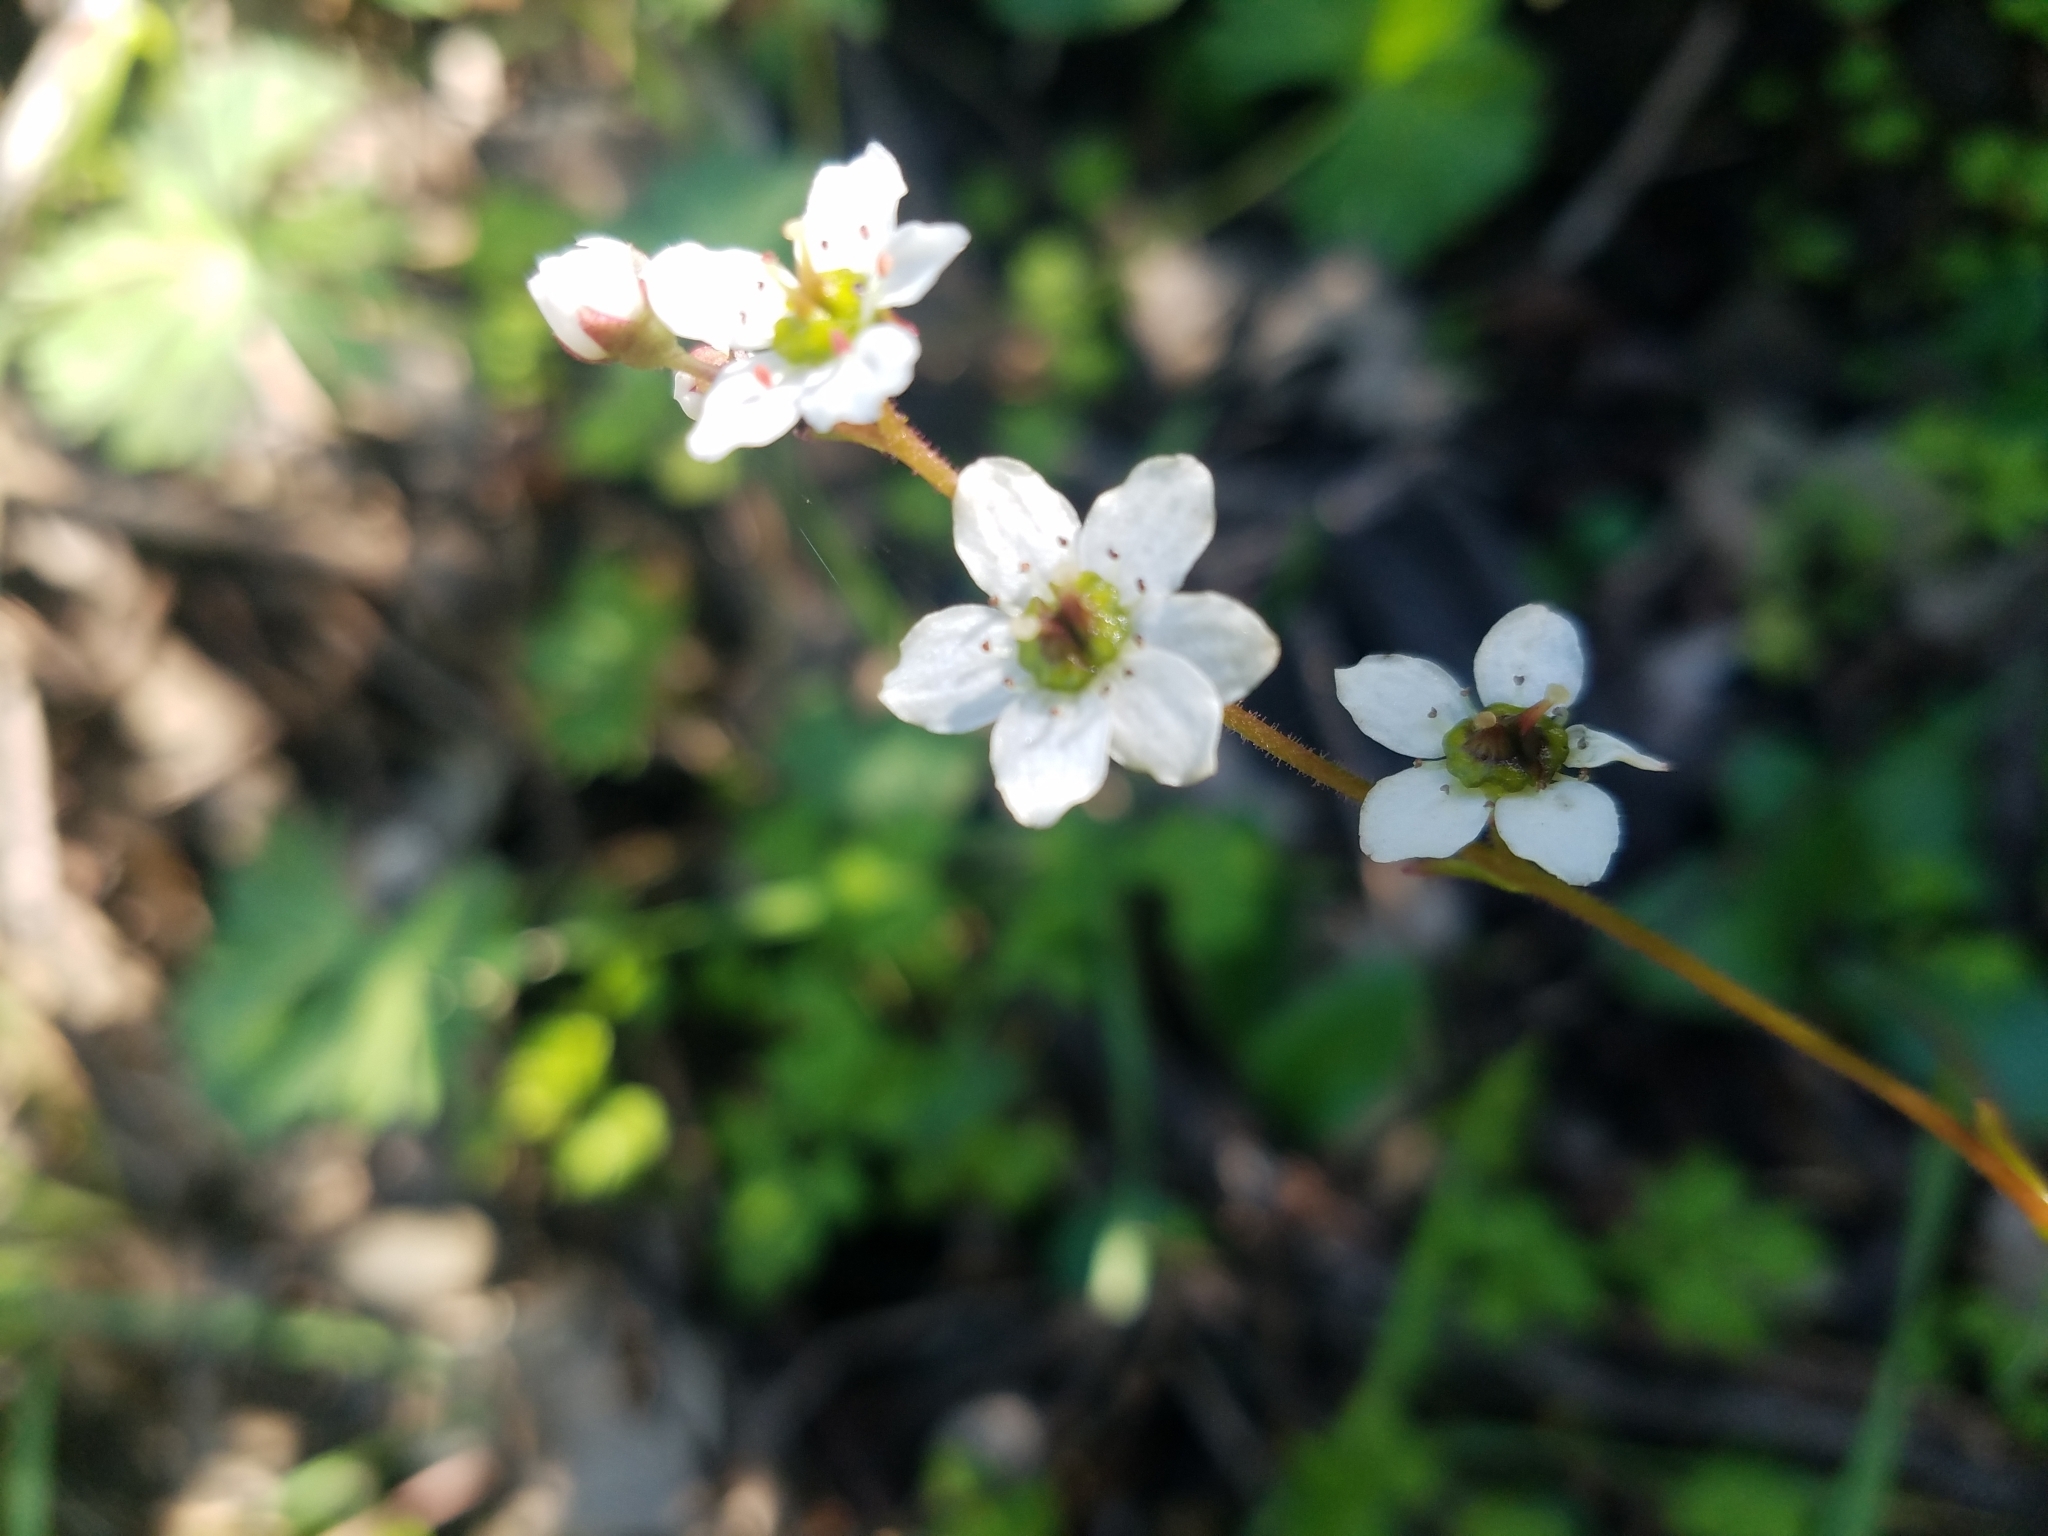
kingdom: Plantae
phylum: Tracheophyta
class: Magnoliopsida
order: Saxifragales
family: Saxifragaceae
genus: Micranthes
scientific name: Micranthes californica
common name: California saxifrage
